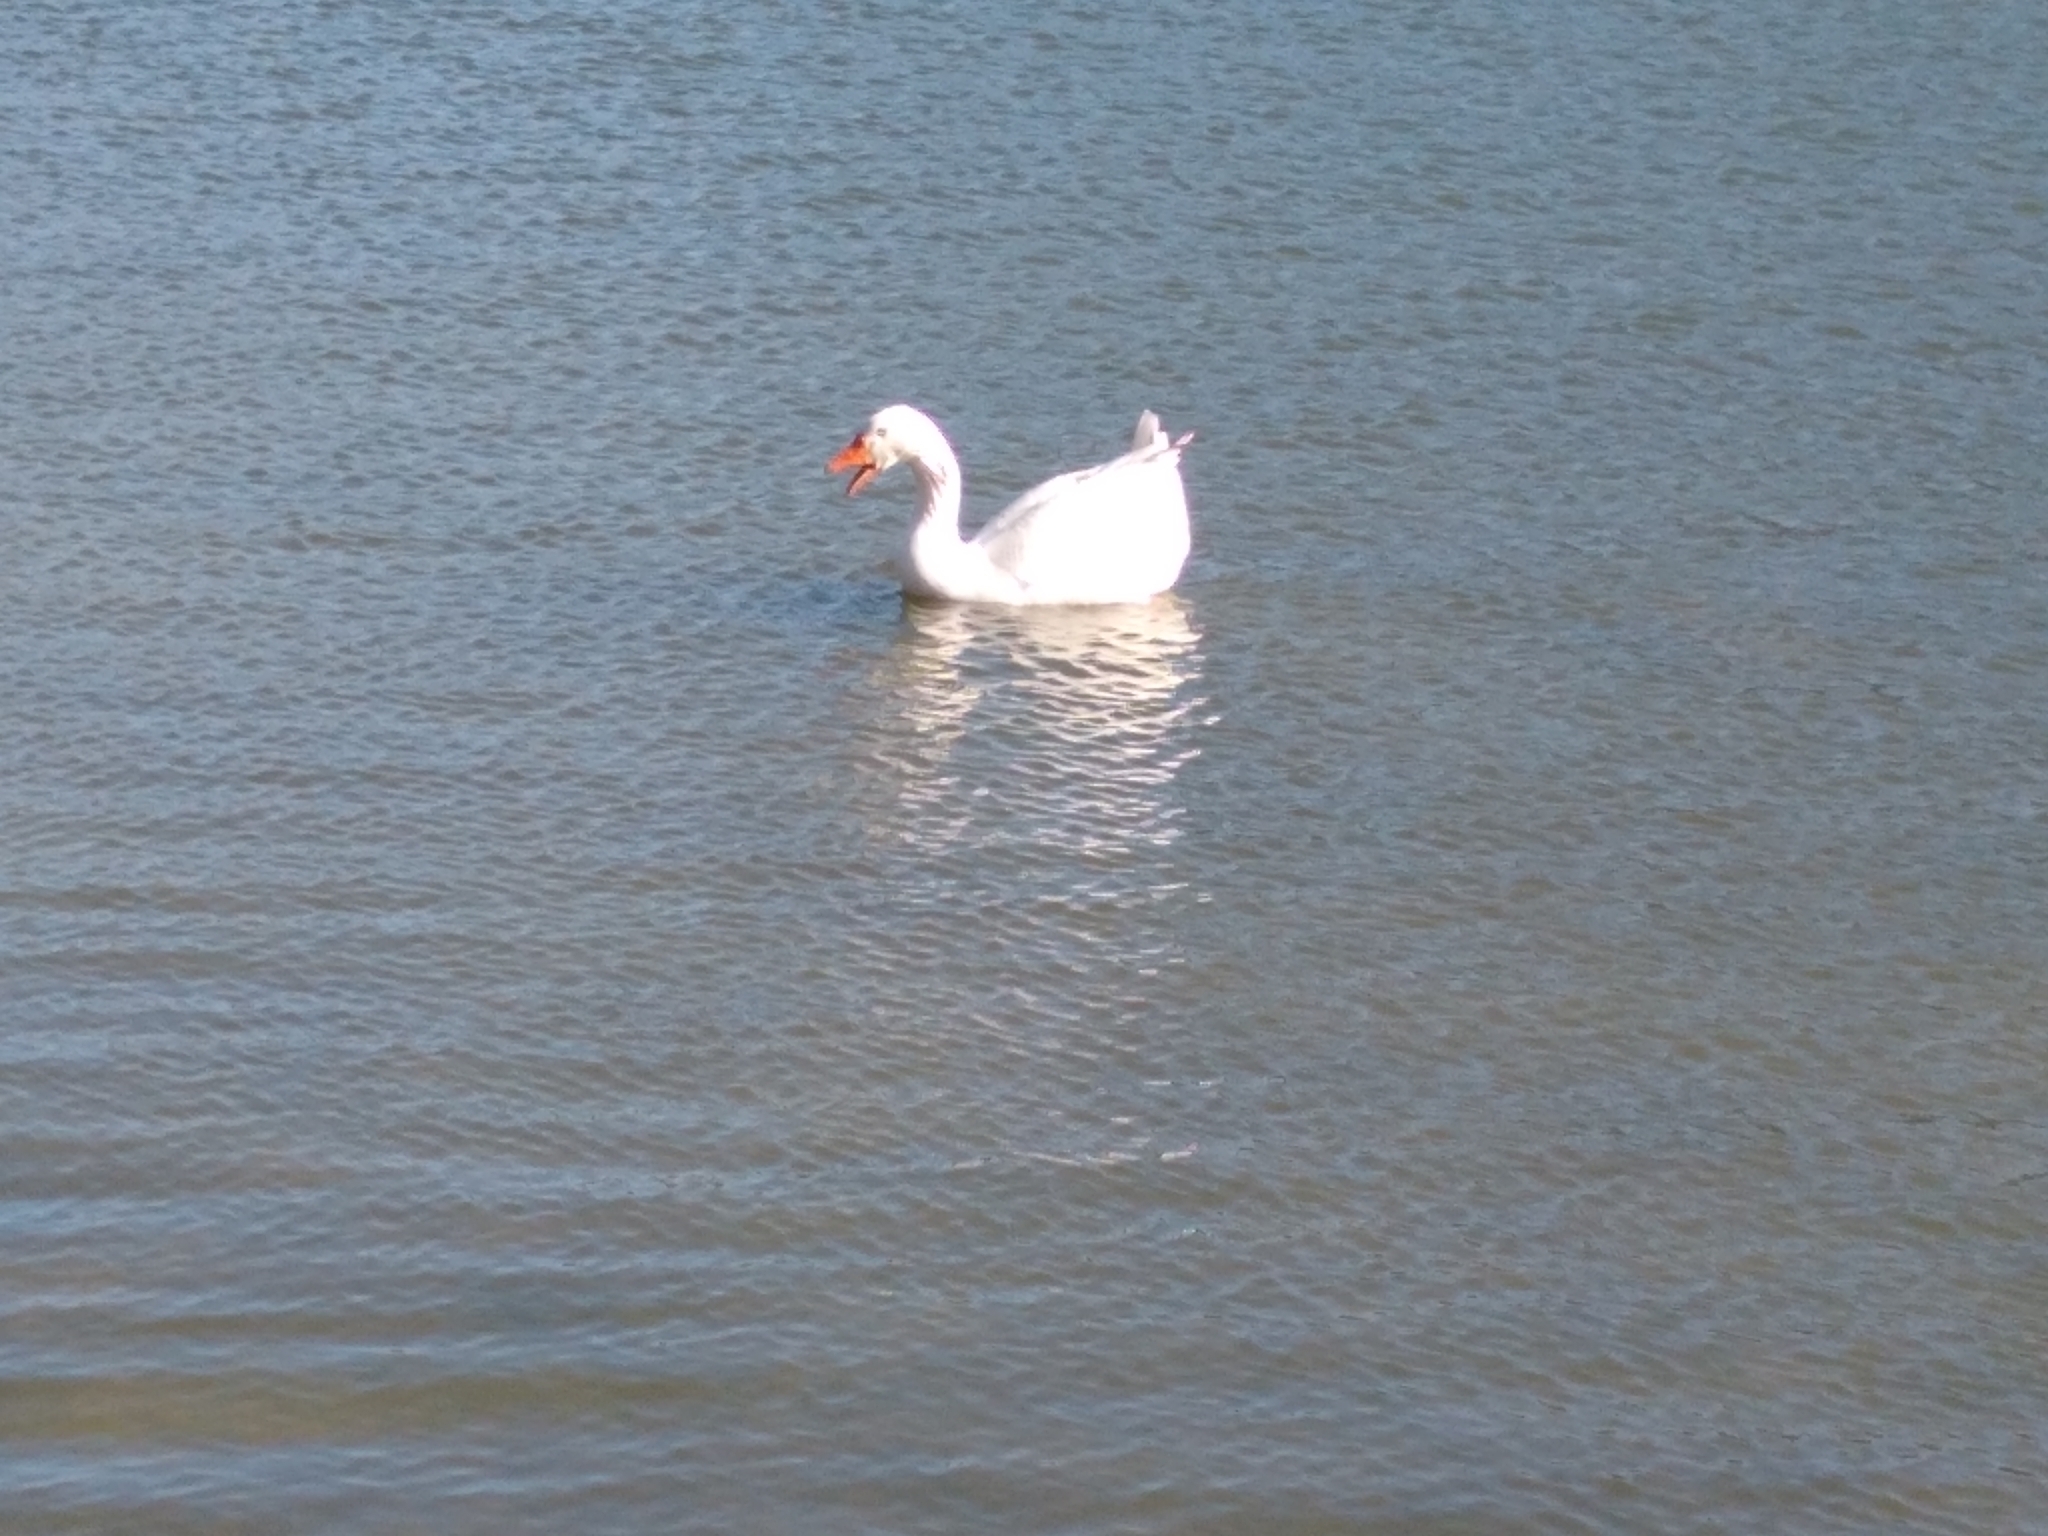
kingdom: Animalia
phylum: Chordata
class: Aves
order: Anseriformes
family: Anatidae
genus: Anser
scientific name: Anser anser
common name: Greylag goose
